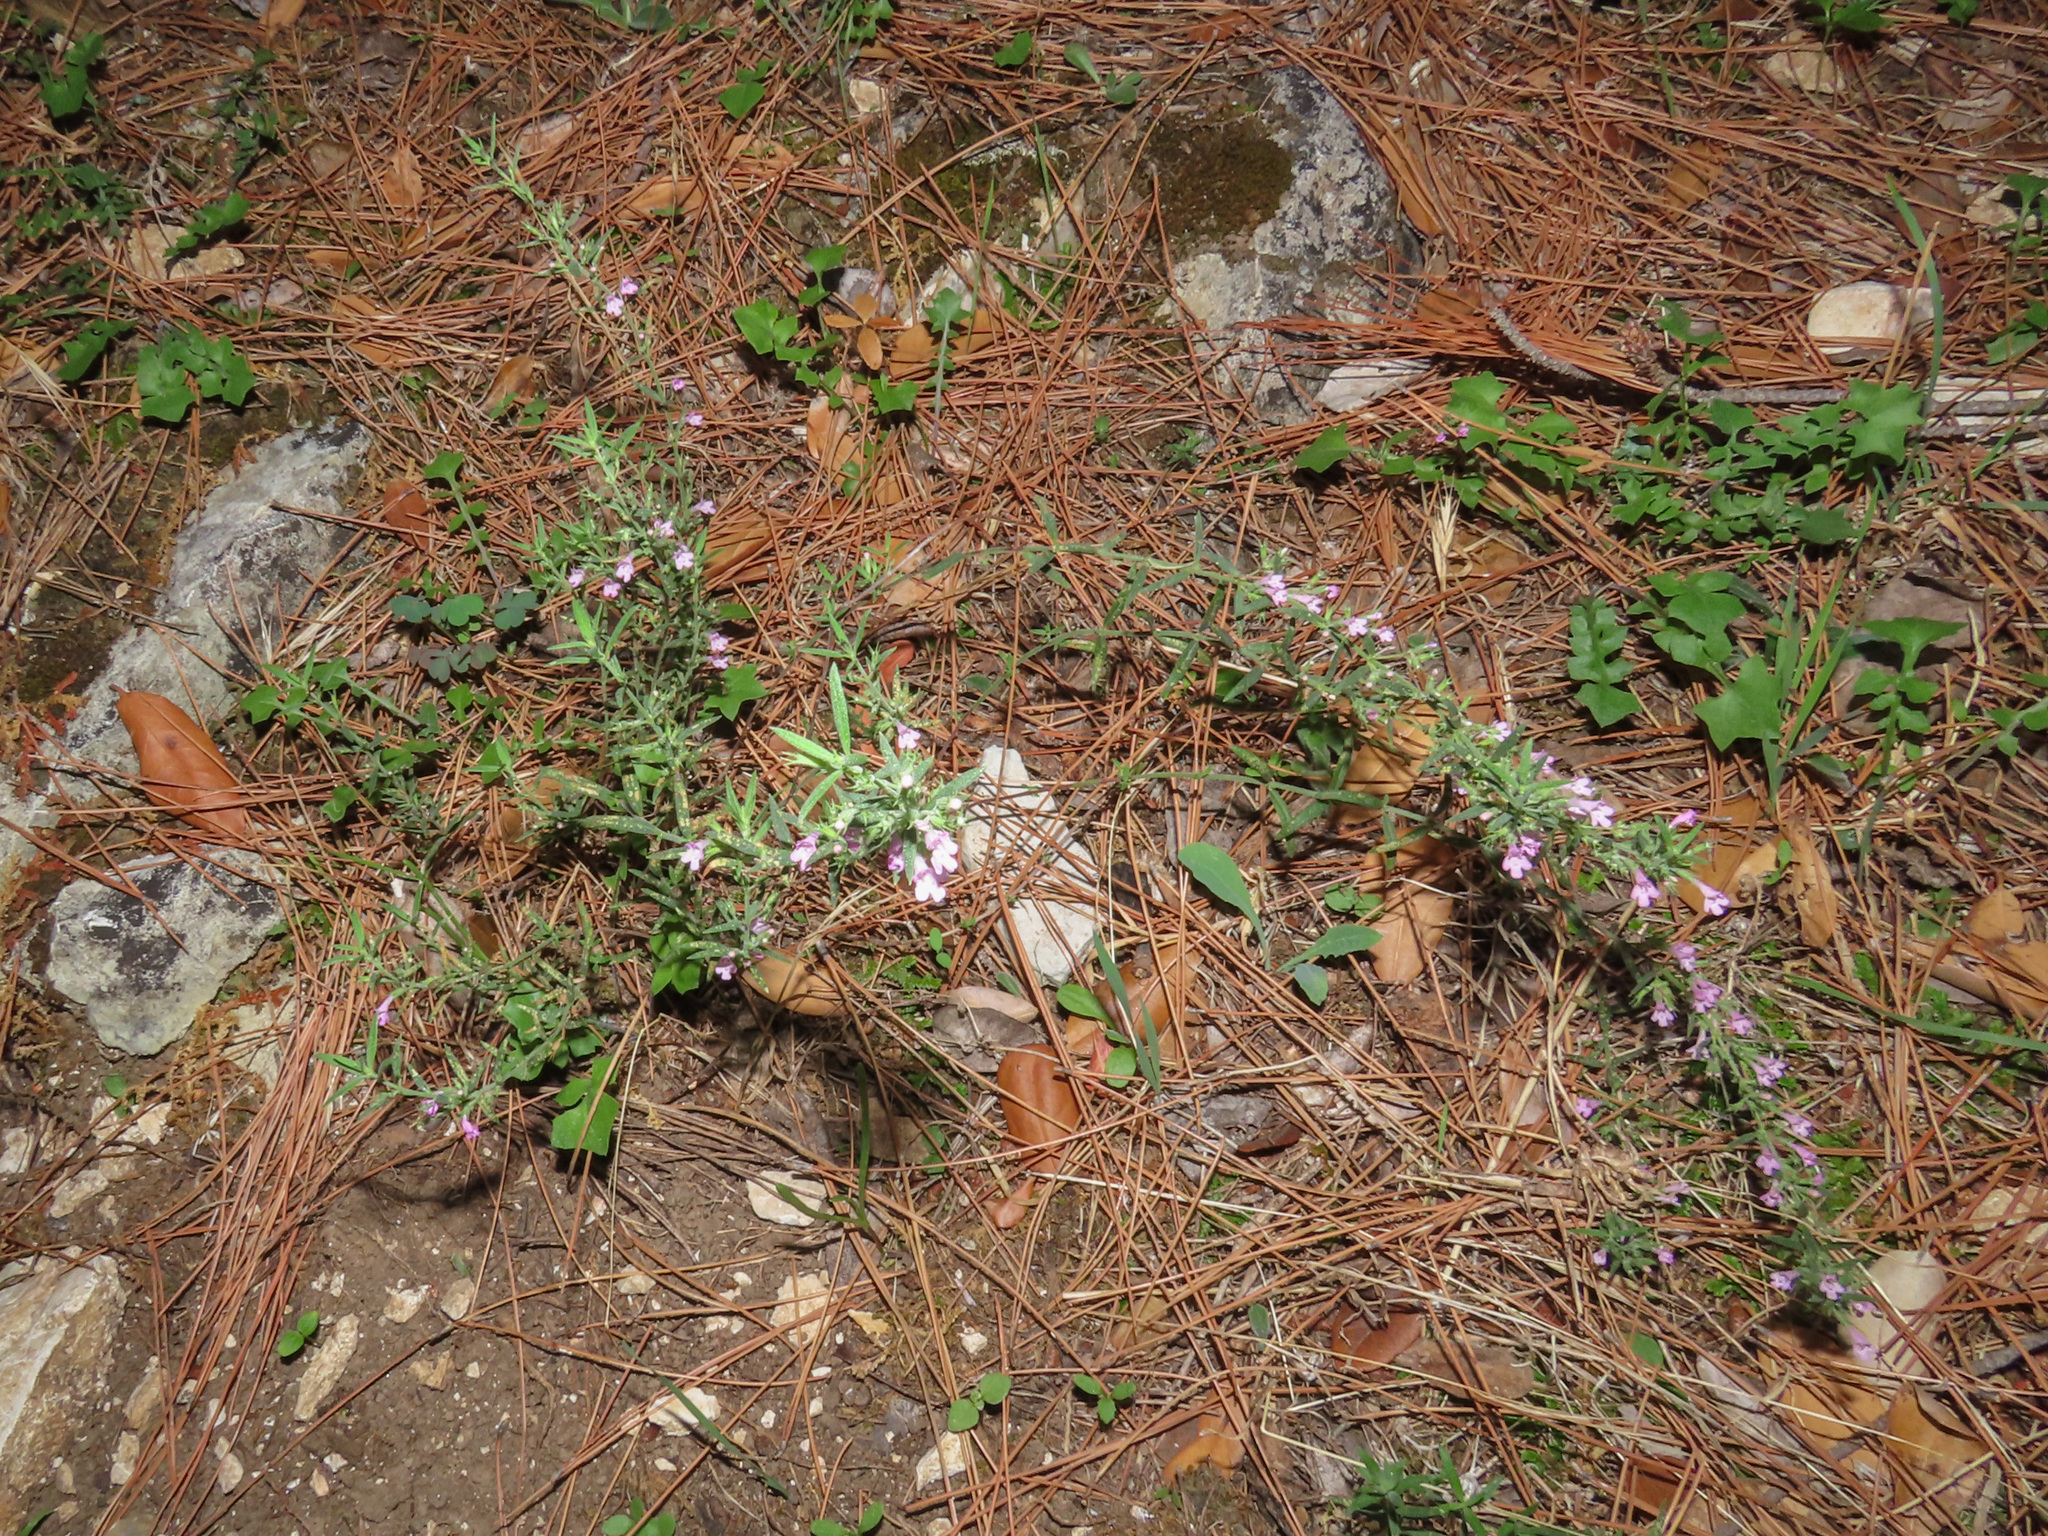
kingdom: Plantae
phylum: Tracheophyta
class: Magnoliopsida
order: Lamiales
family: Lamiaceae
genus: Micromeria
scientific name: Micromeria graeca
